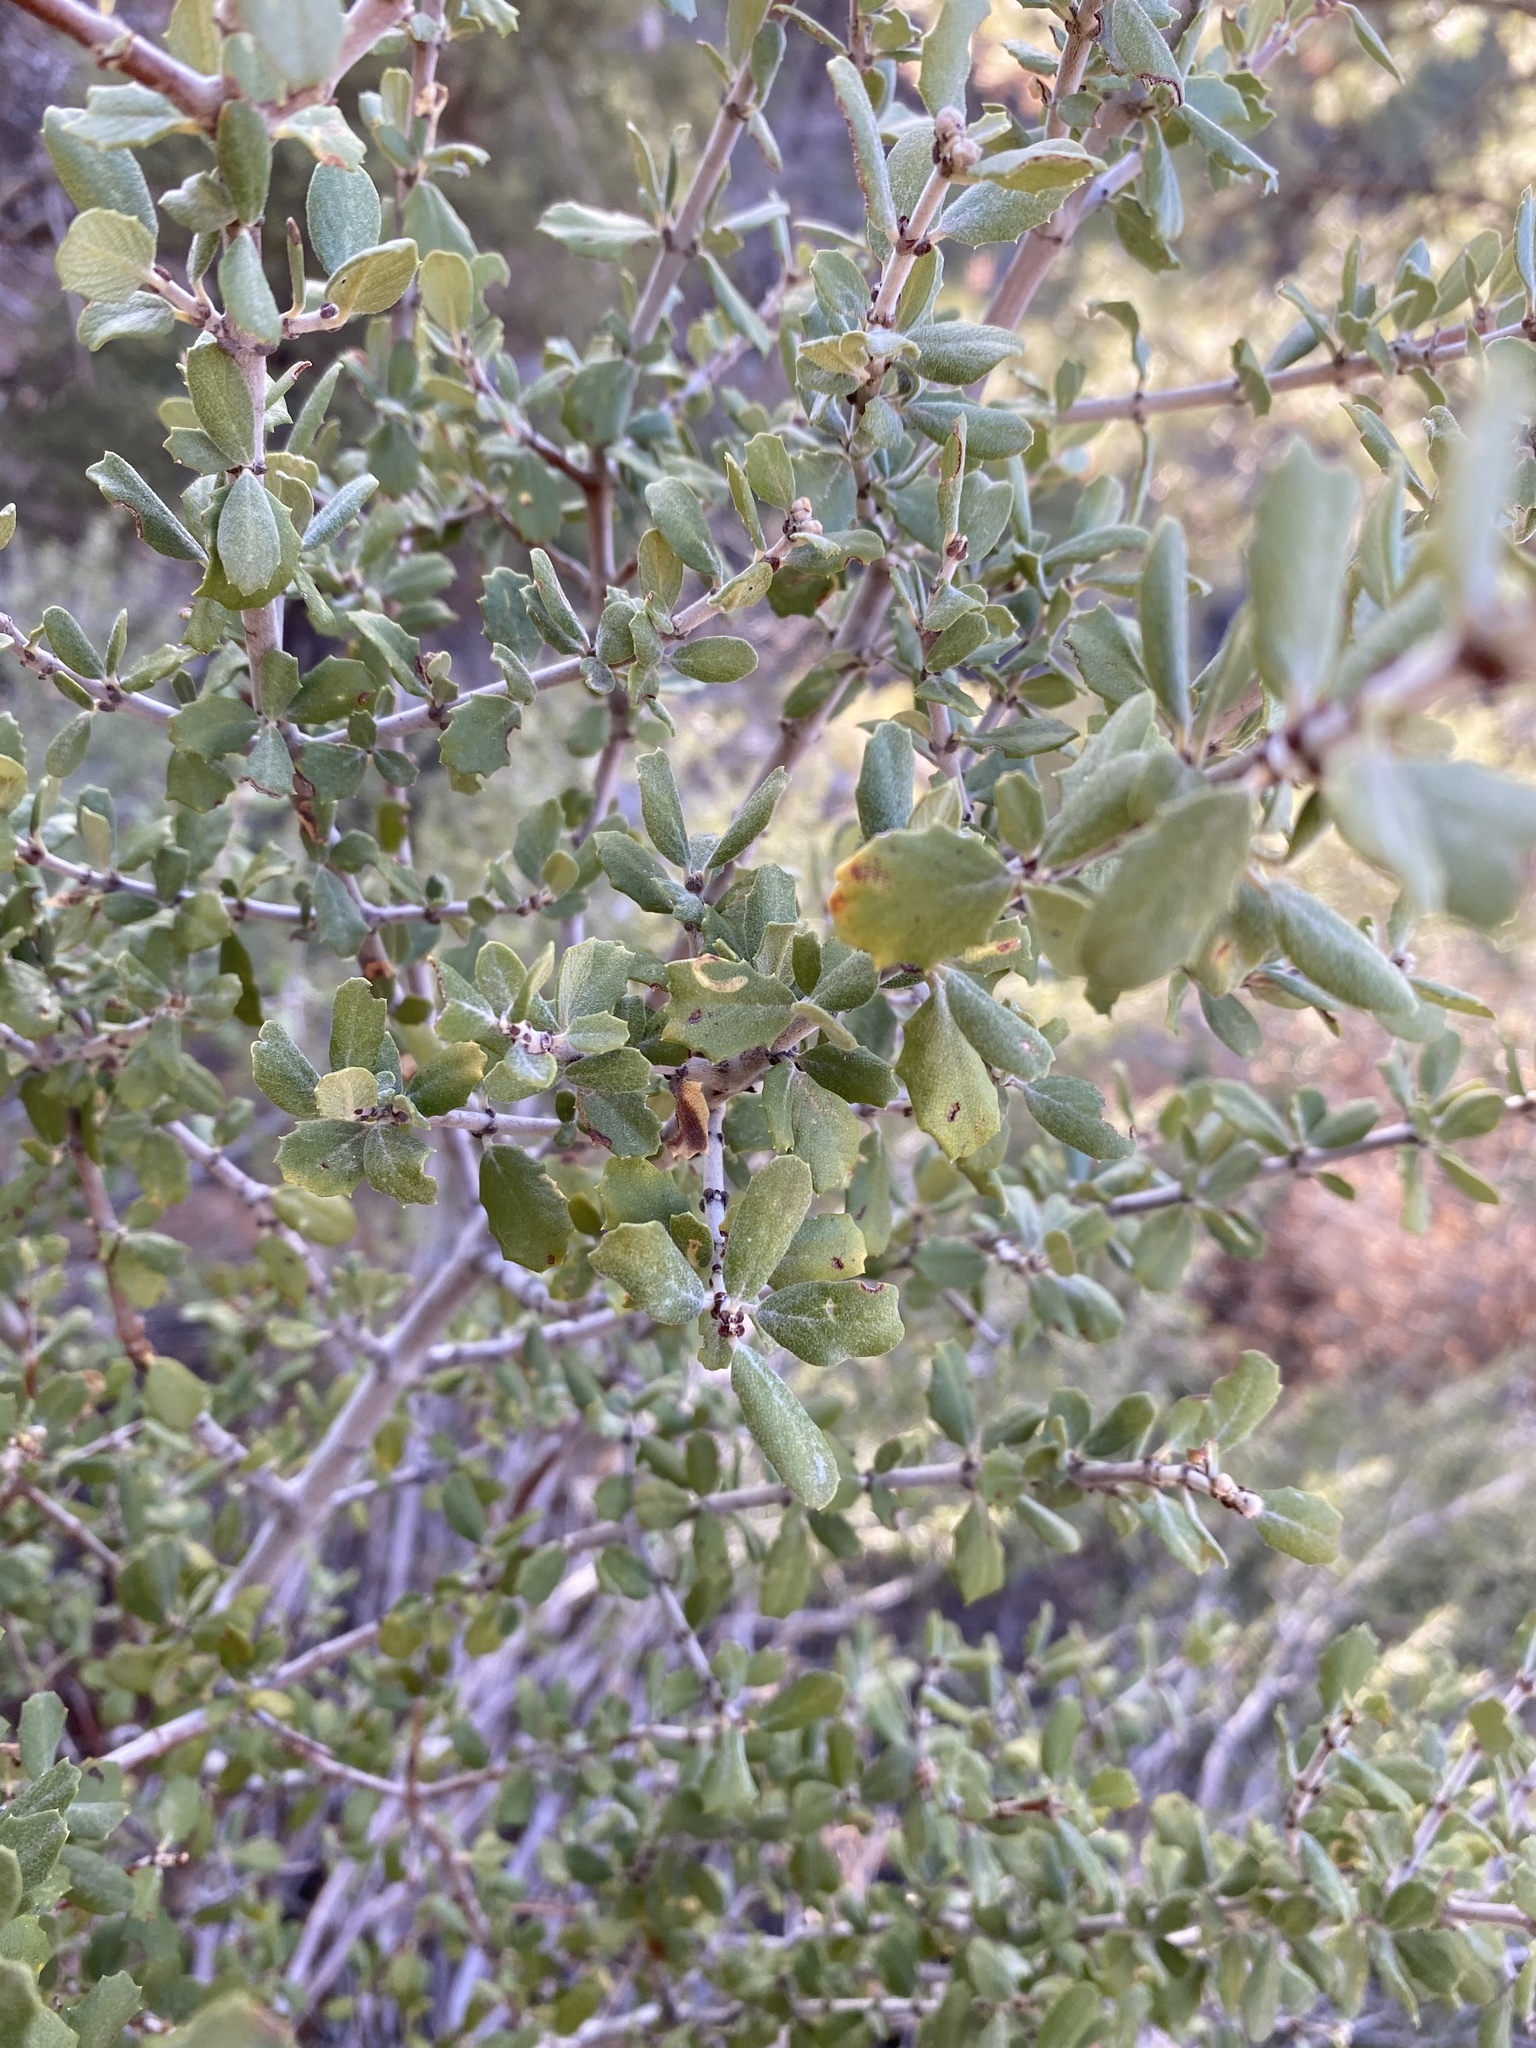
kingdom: Plantae
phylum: Tracheophyta
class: Magnoliopsida
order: Fagales
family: Fagaceae
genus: Quercus
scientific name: Quercus turbinella
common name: Sonoran scrub oak
